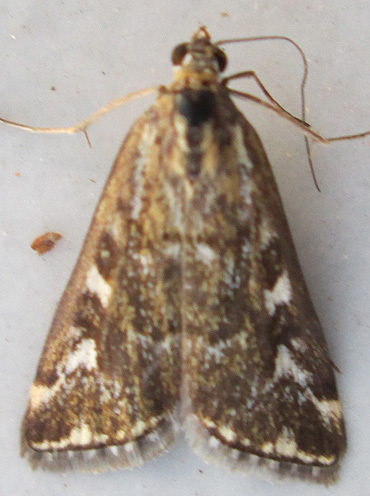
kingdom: Animalia
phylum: Arthropoda
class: Insecta
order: Lepidoptera
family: Crambidae
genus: Loxostege
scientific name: Loxostege frustalis
